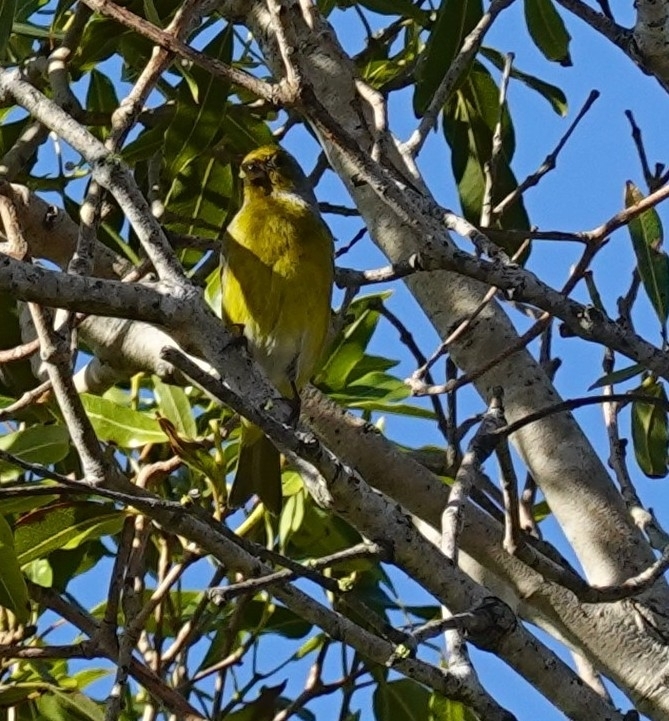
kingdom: Animalia
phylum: Chordata
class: Aves
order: Passeriformes
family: Fringillidae
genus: Serinus
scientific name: Serinus canicollis
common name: Cape canary
